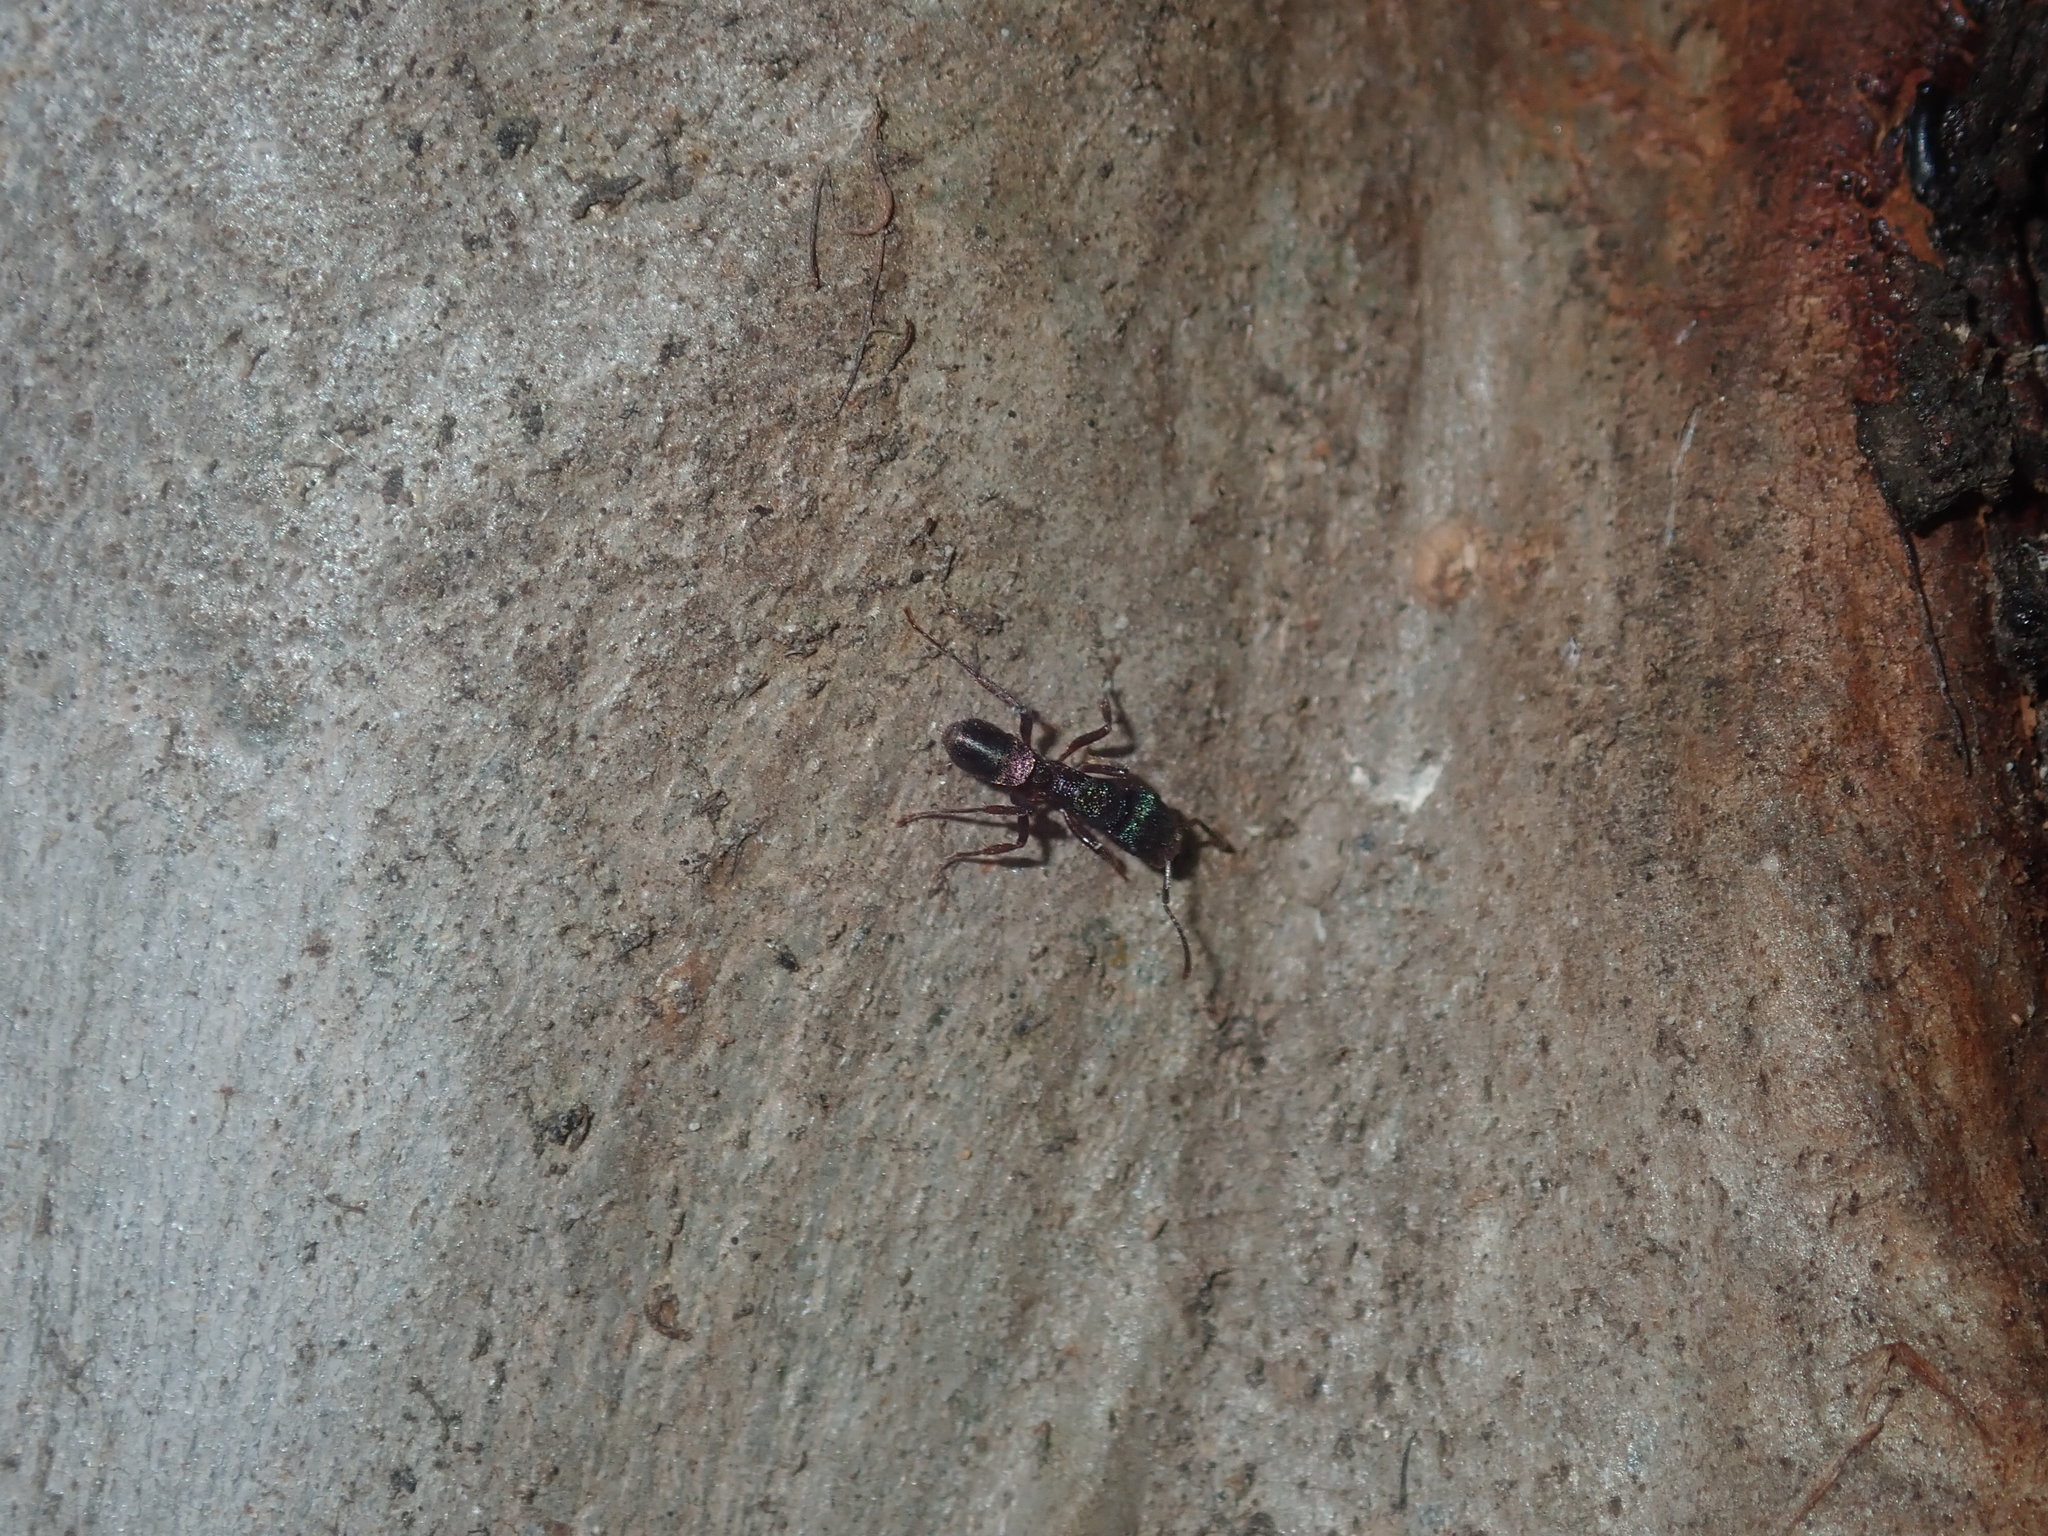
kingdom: Animalia
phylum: Arthropoda
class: Insecta
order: Hymenoptera
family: Formicidae
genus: Rhytidoponera
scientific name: Rhytidoponera metallica
